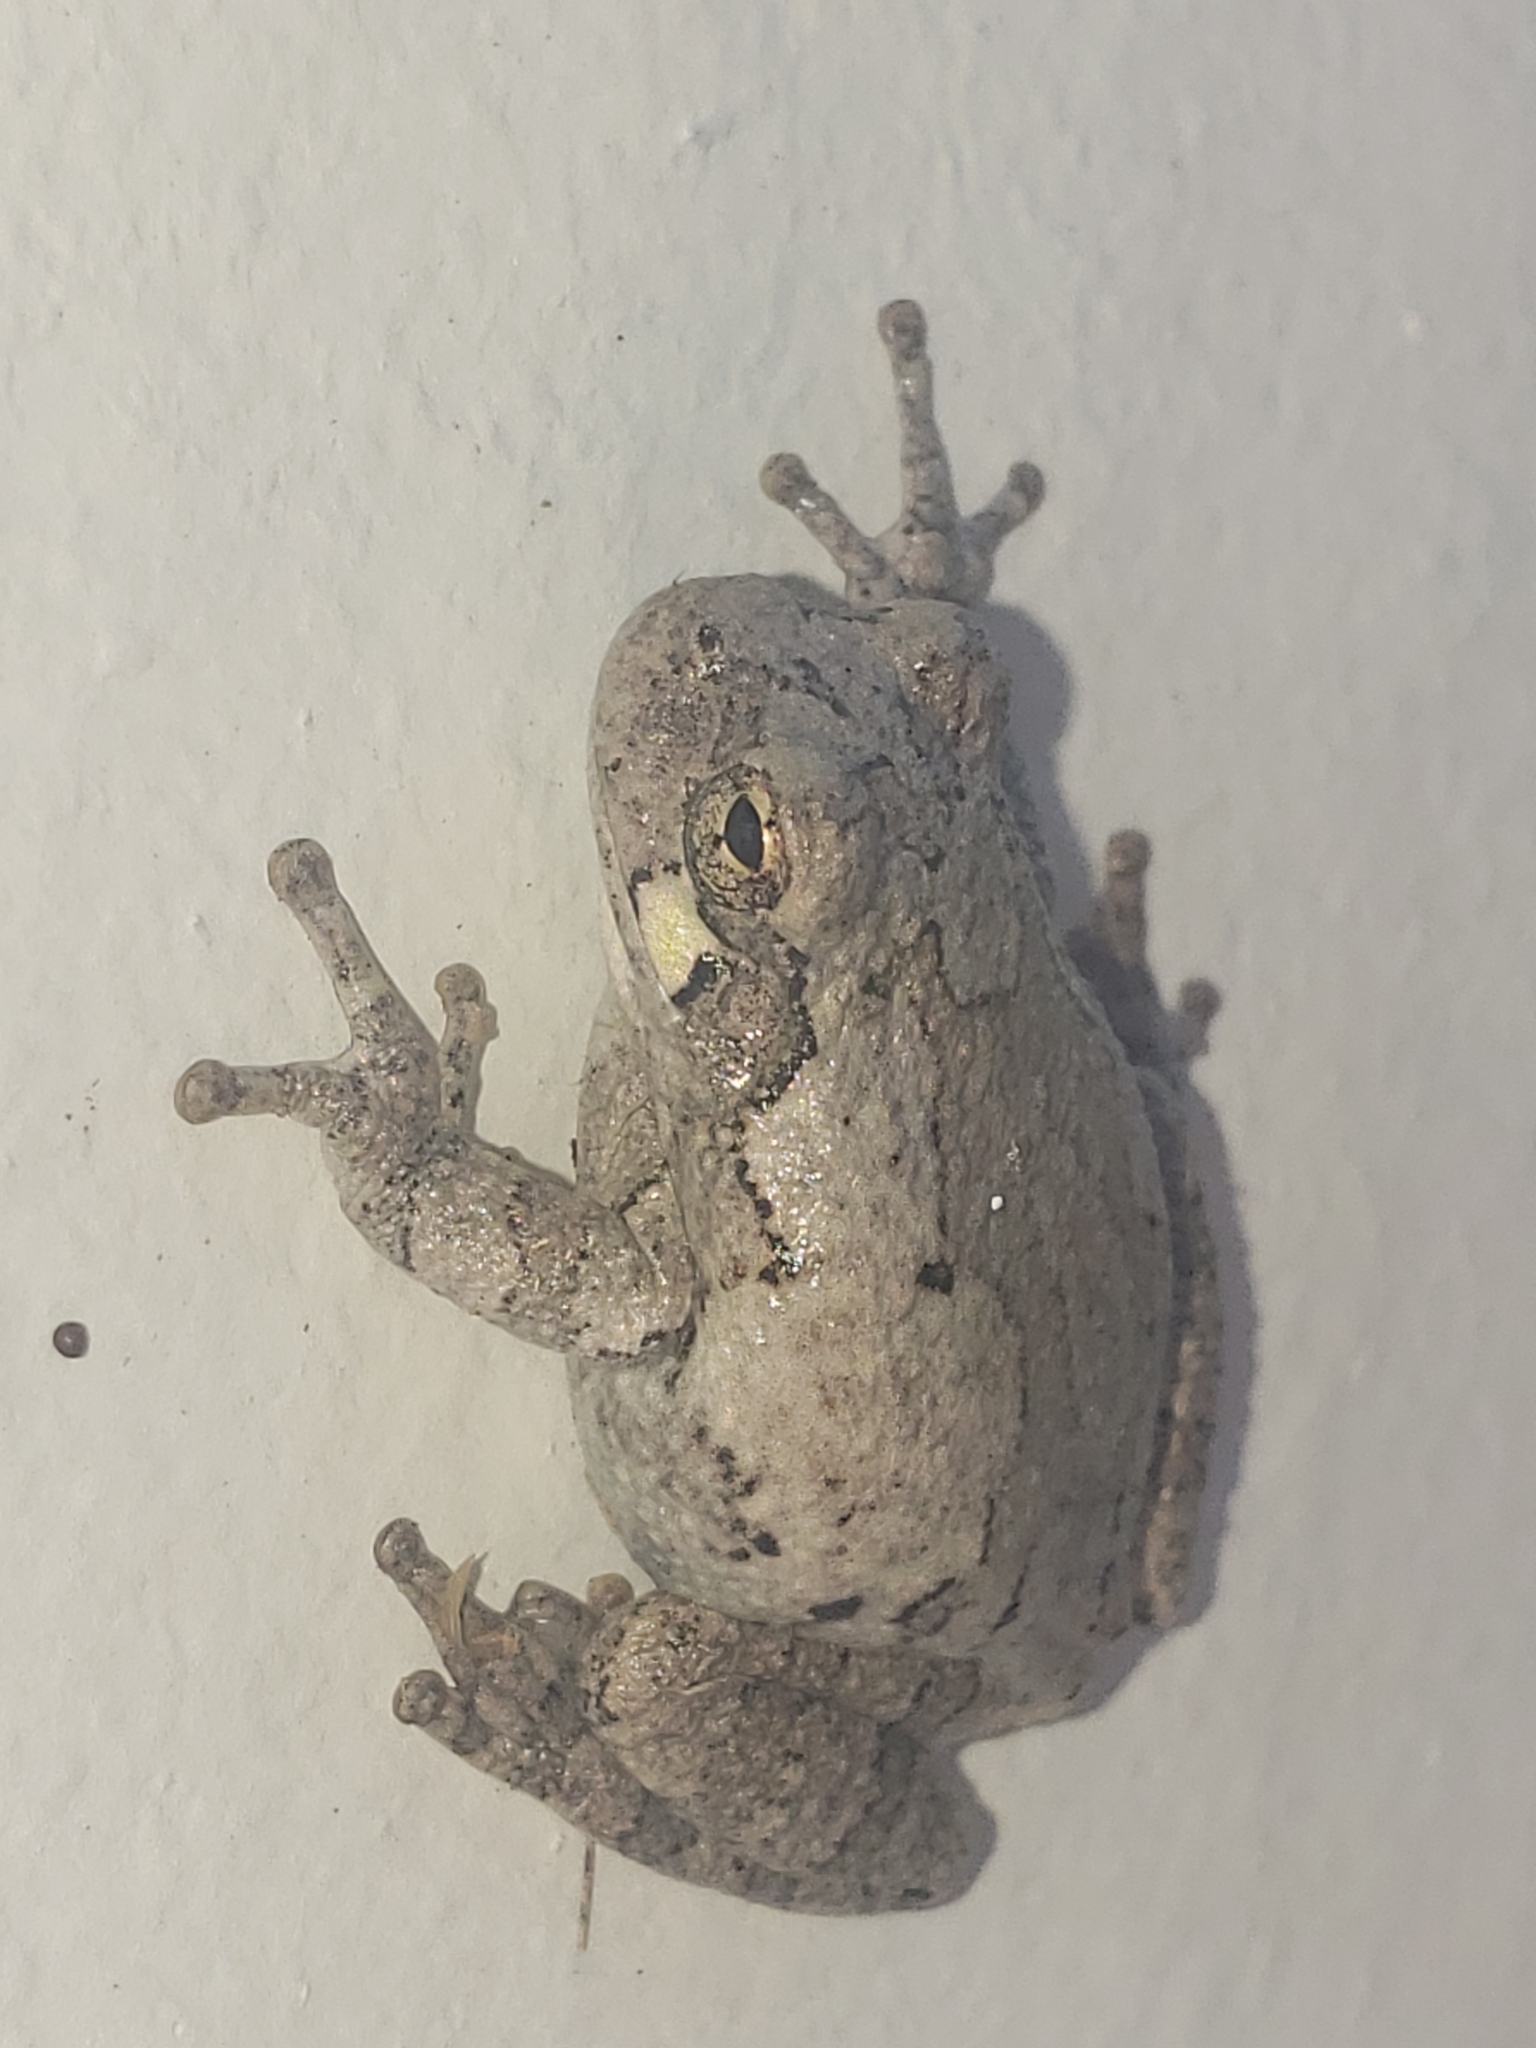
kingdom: Animalia
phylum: Chordata
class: Amphibia
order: Anura
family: Hylidae
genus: Hyla
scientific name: Hyla
